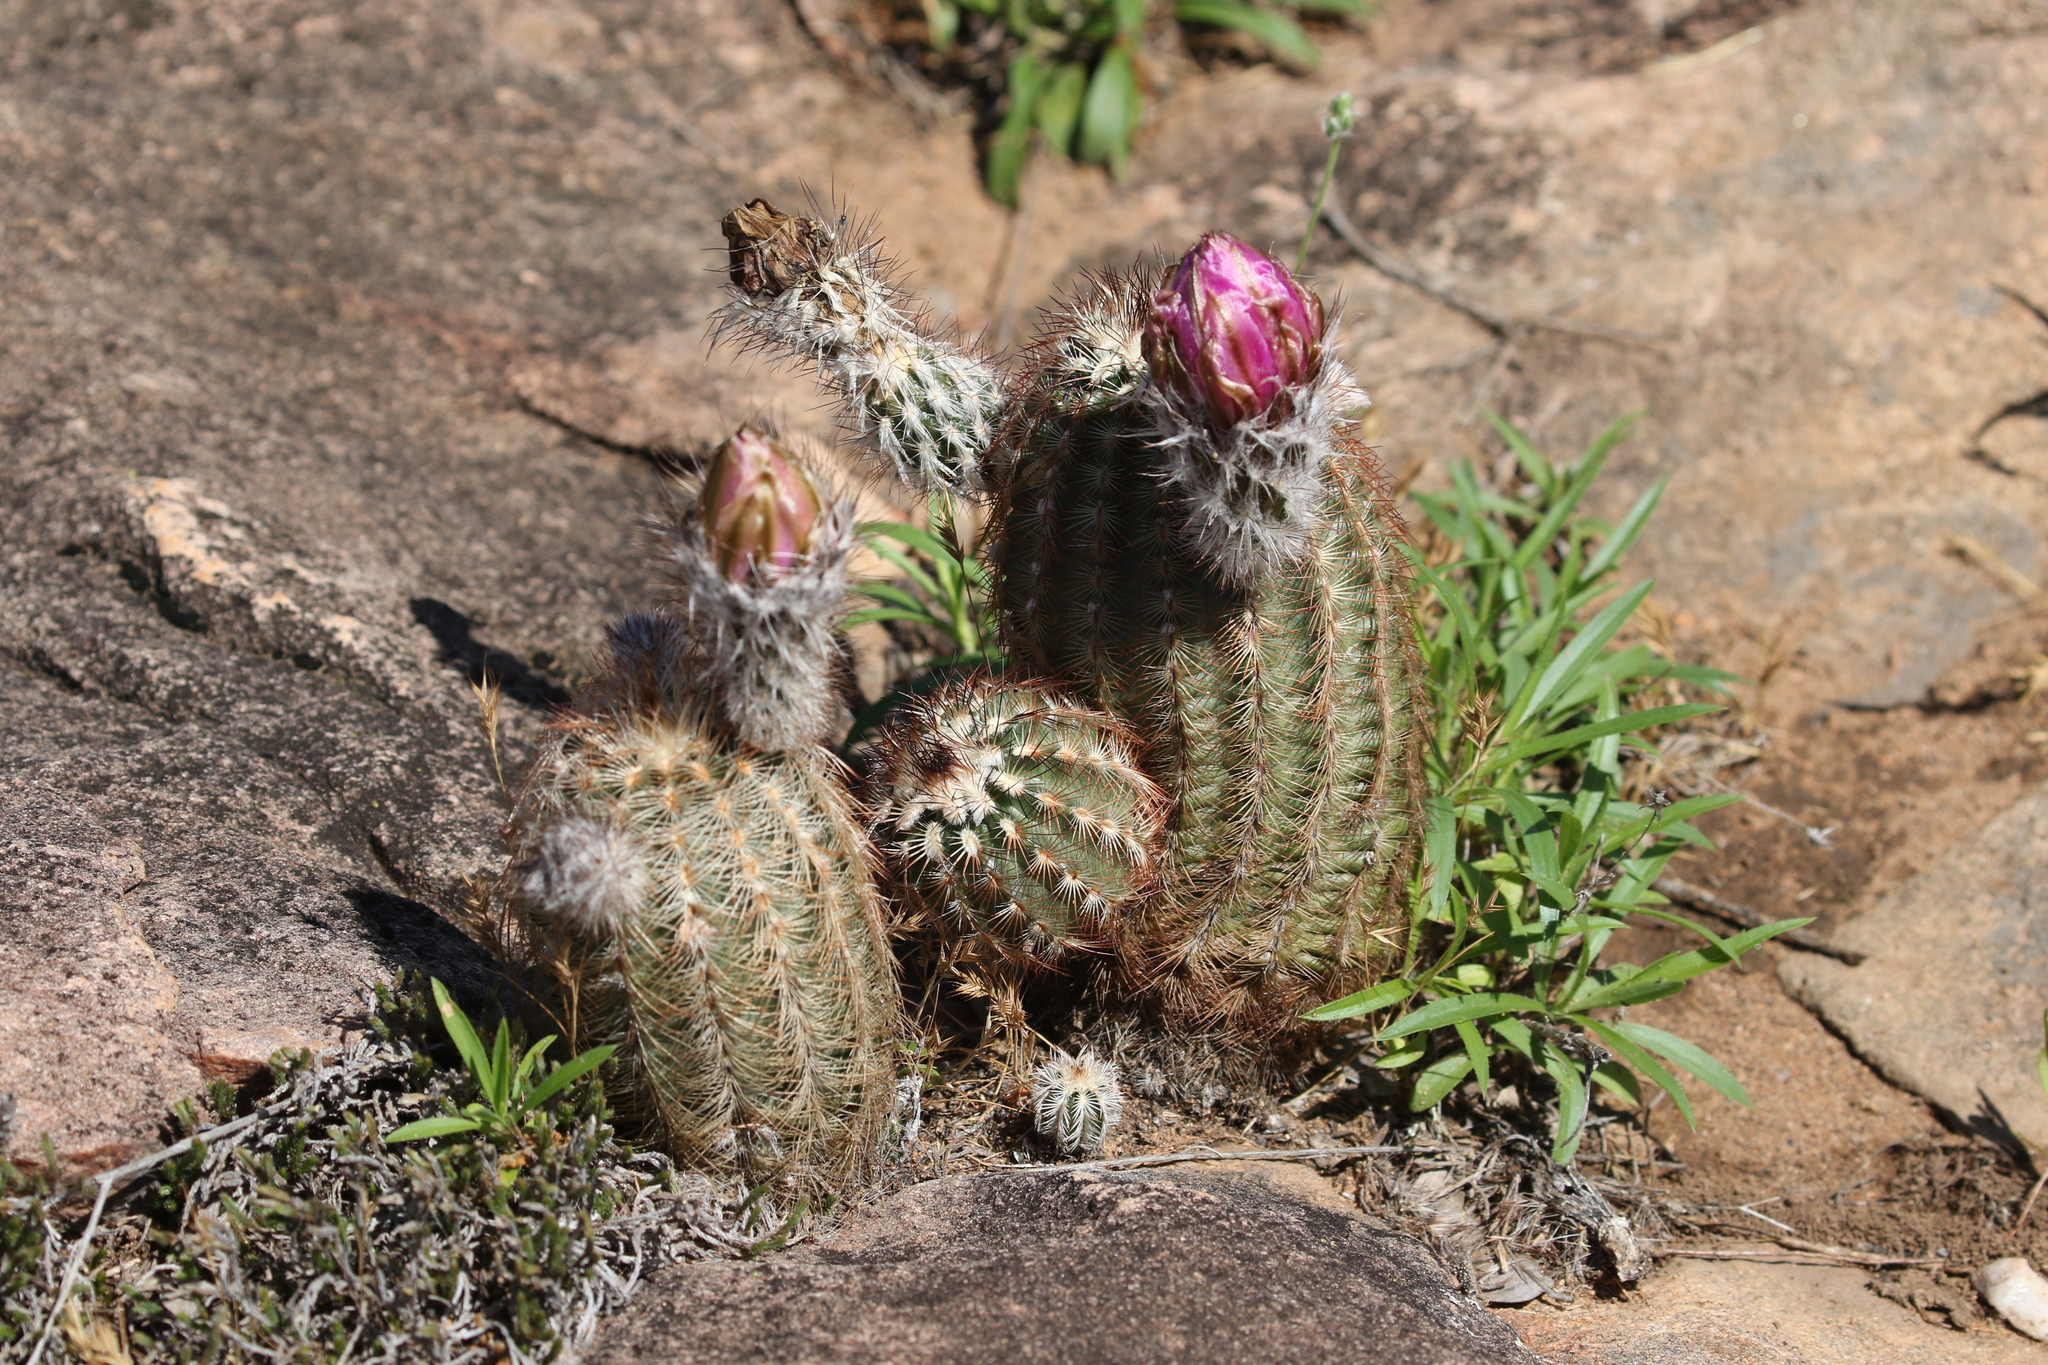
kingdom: Plantae
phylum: Tracheophyta
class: Magnoliopsida
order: Caryophyllales
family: Cactaceae
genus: Echinocereus
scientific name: Echinocereus reichenbachii
